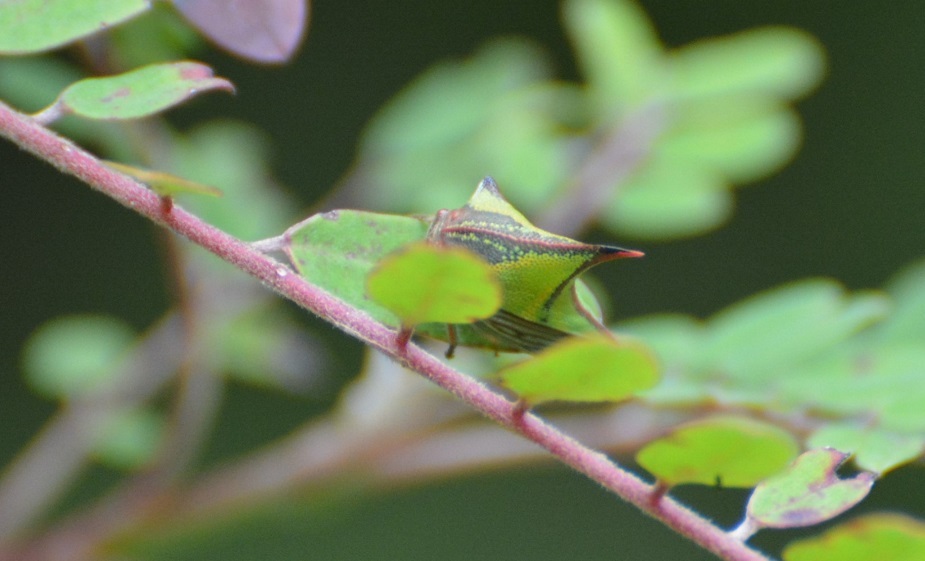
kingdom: Animalia
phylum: Arthropoda
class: Insecta
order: Hemiptera
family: Membracidae
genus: Umbonia
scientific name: Umbonia crassicornis
